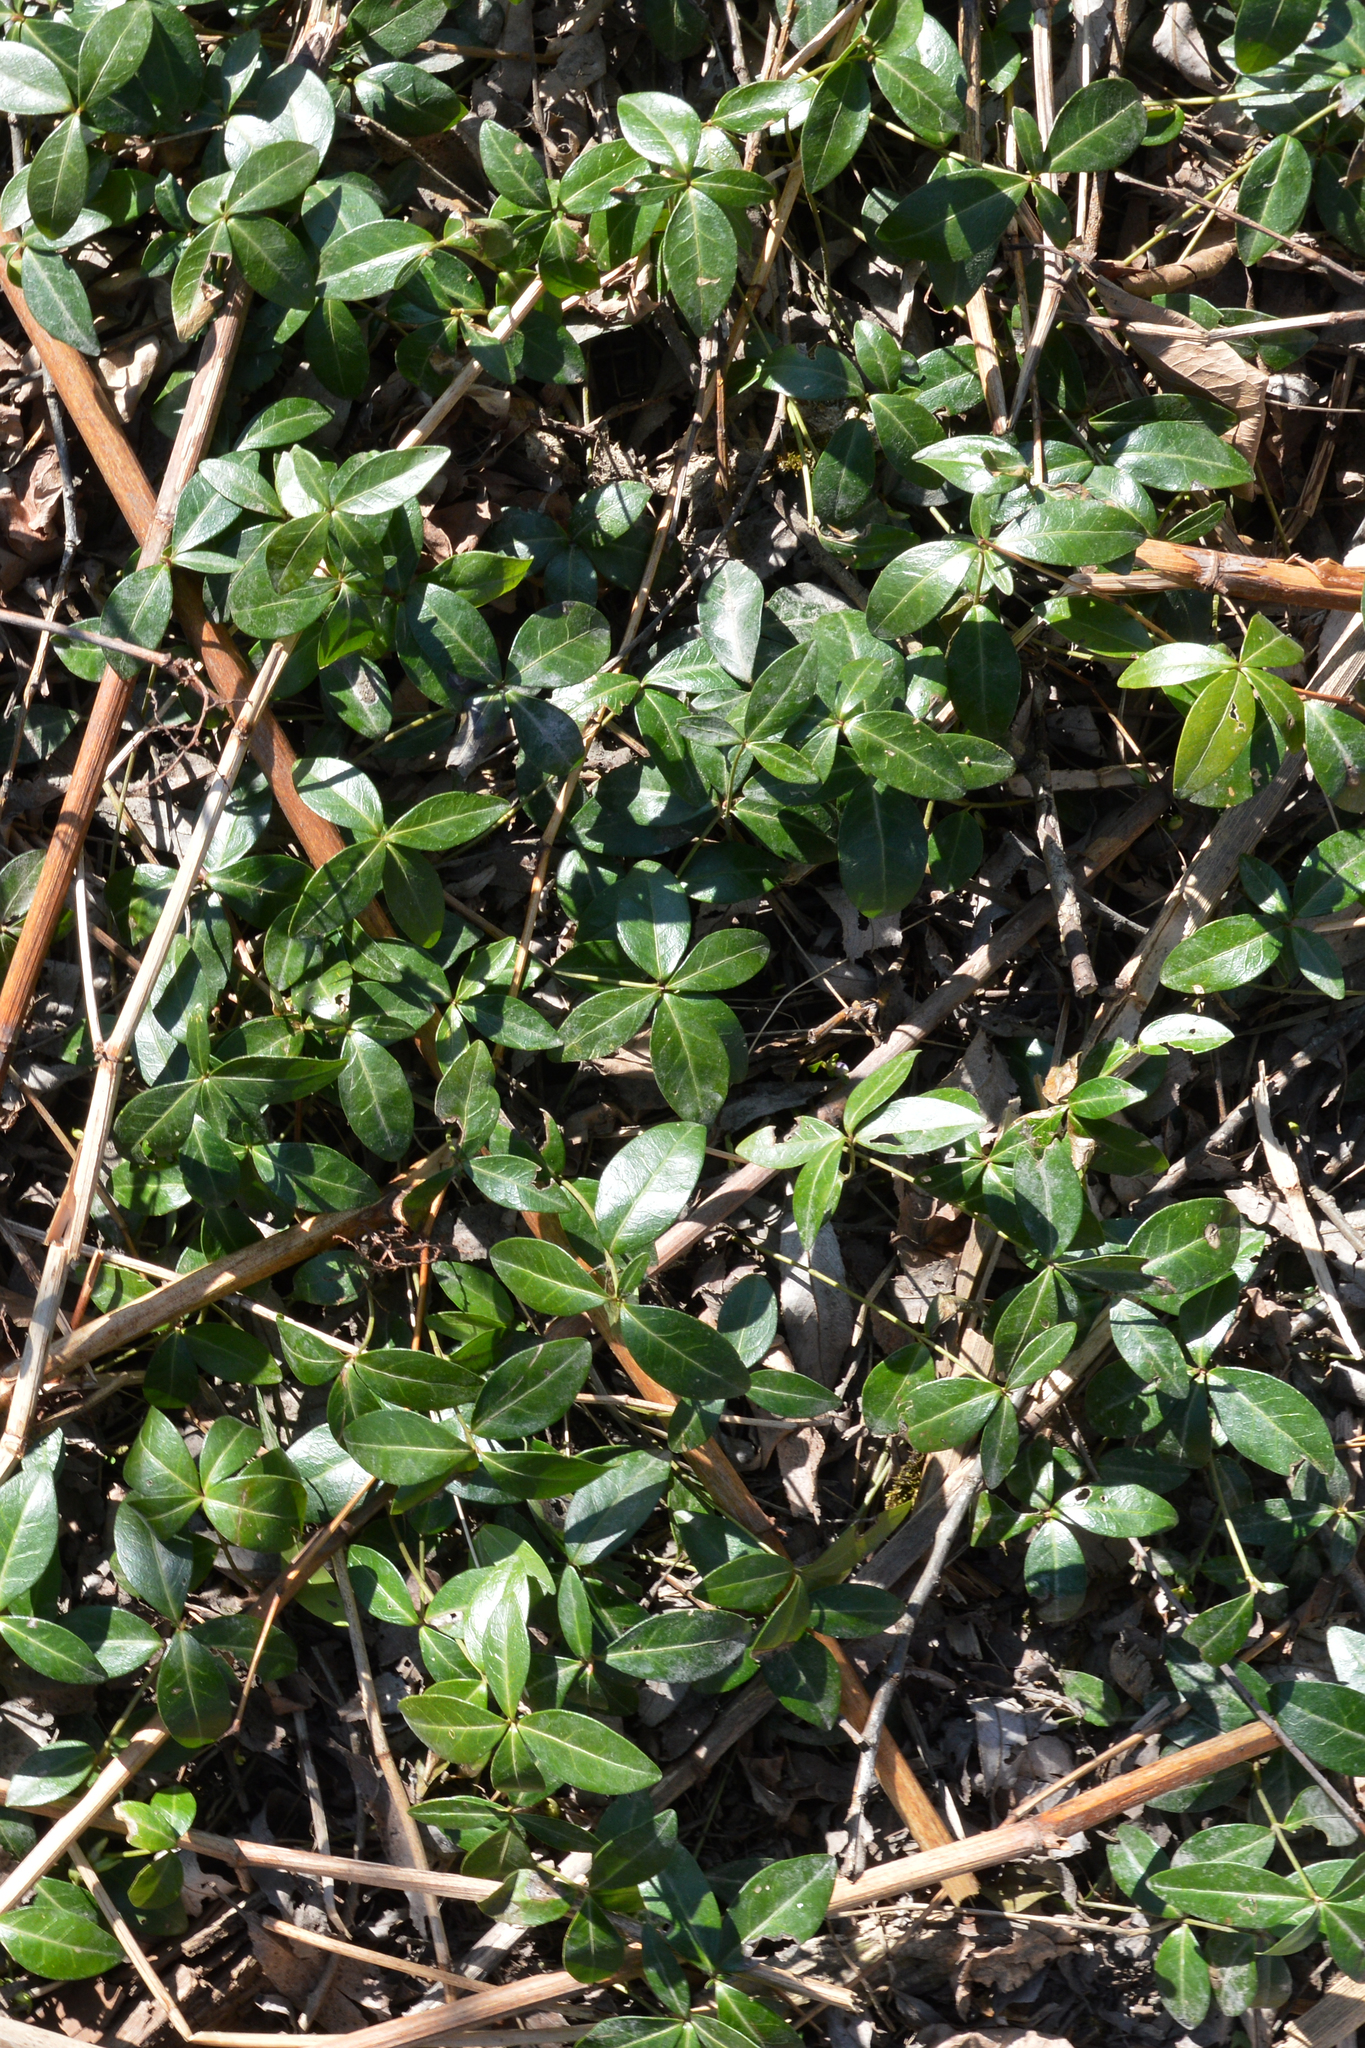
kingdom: Plantae
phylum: Tracheophyta
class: Magnoliopsida
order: Gentianales
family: Apocynaceae
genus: Vinca
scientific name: Vinca minor
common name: Lesser periwinkle
